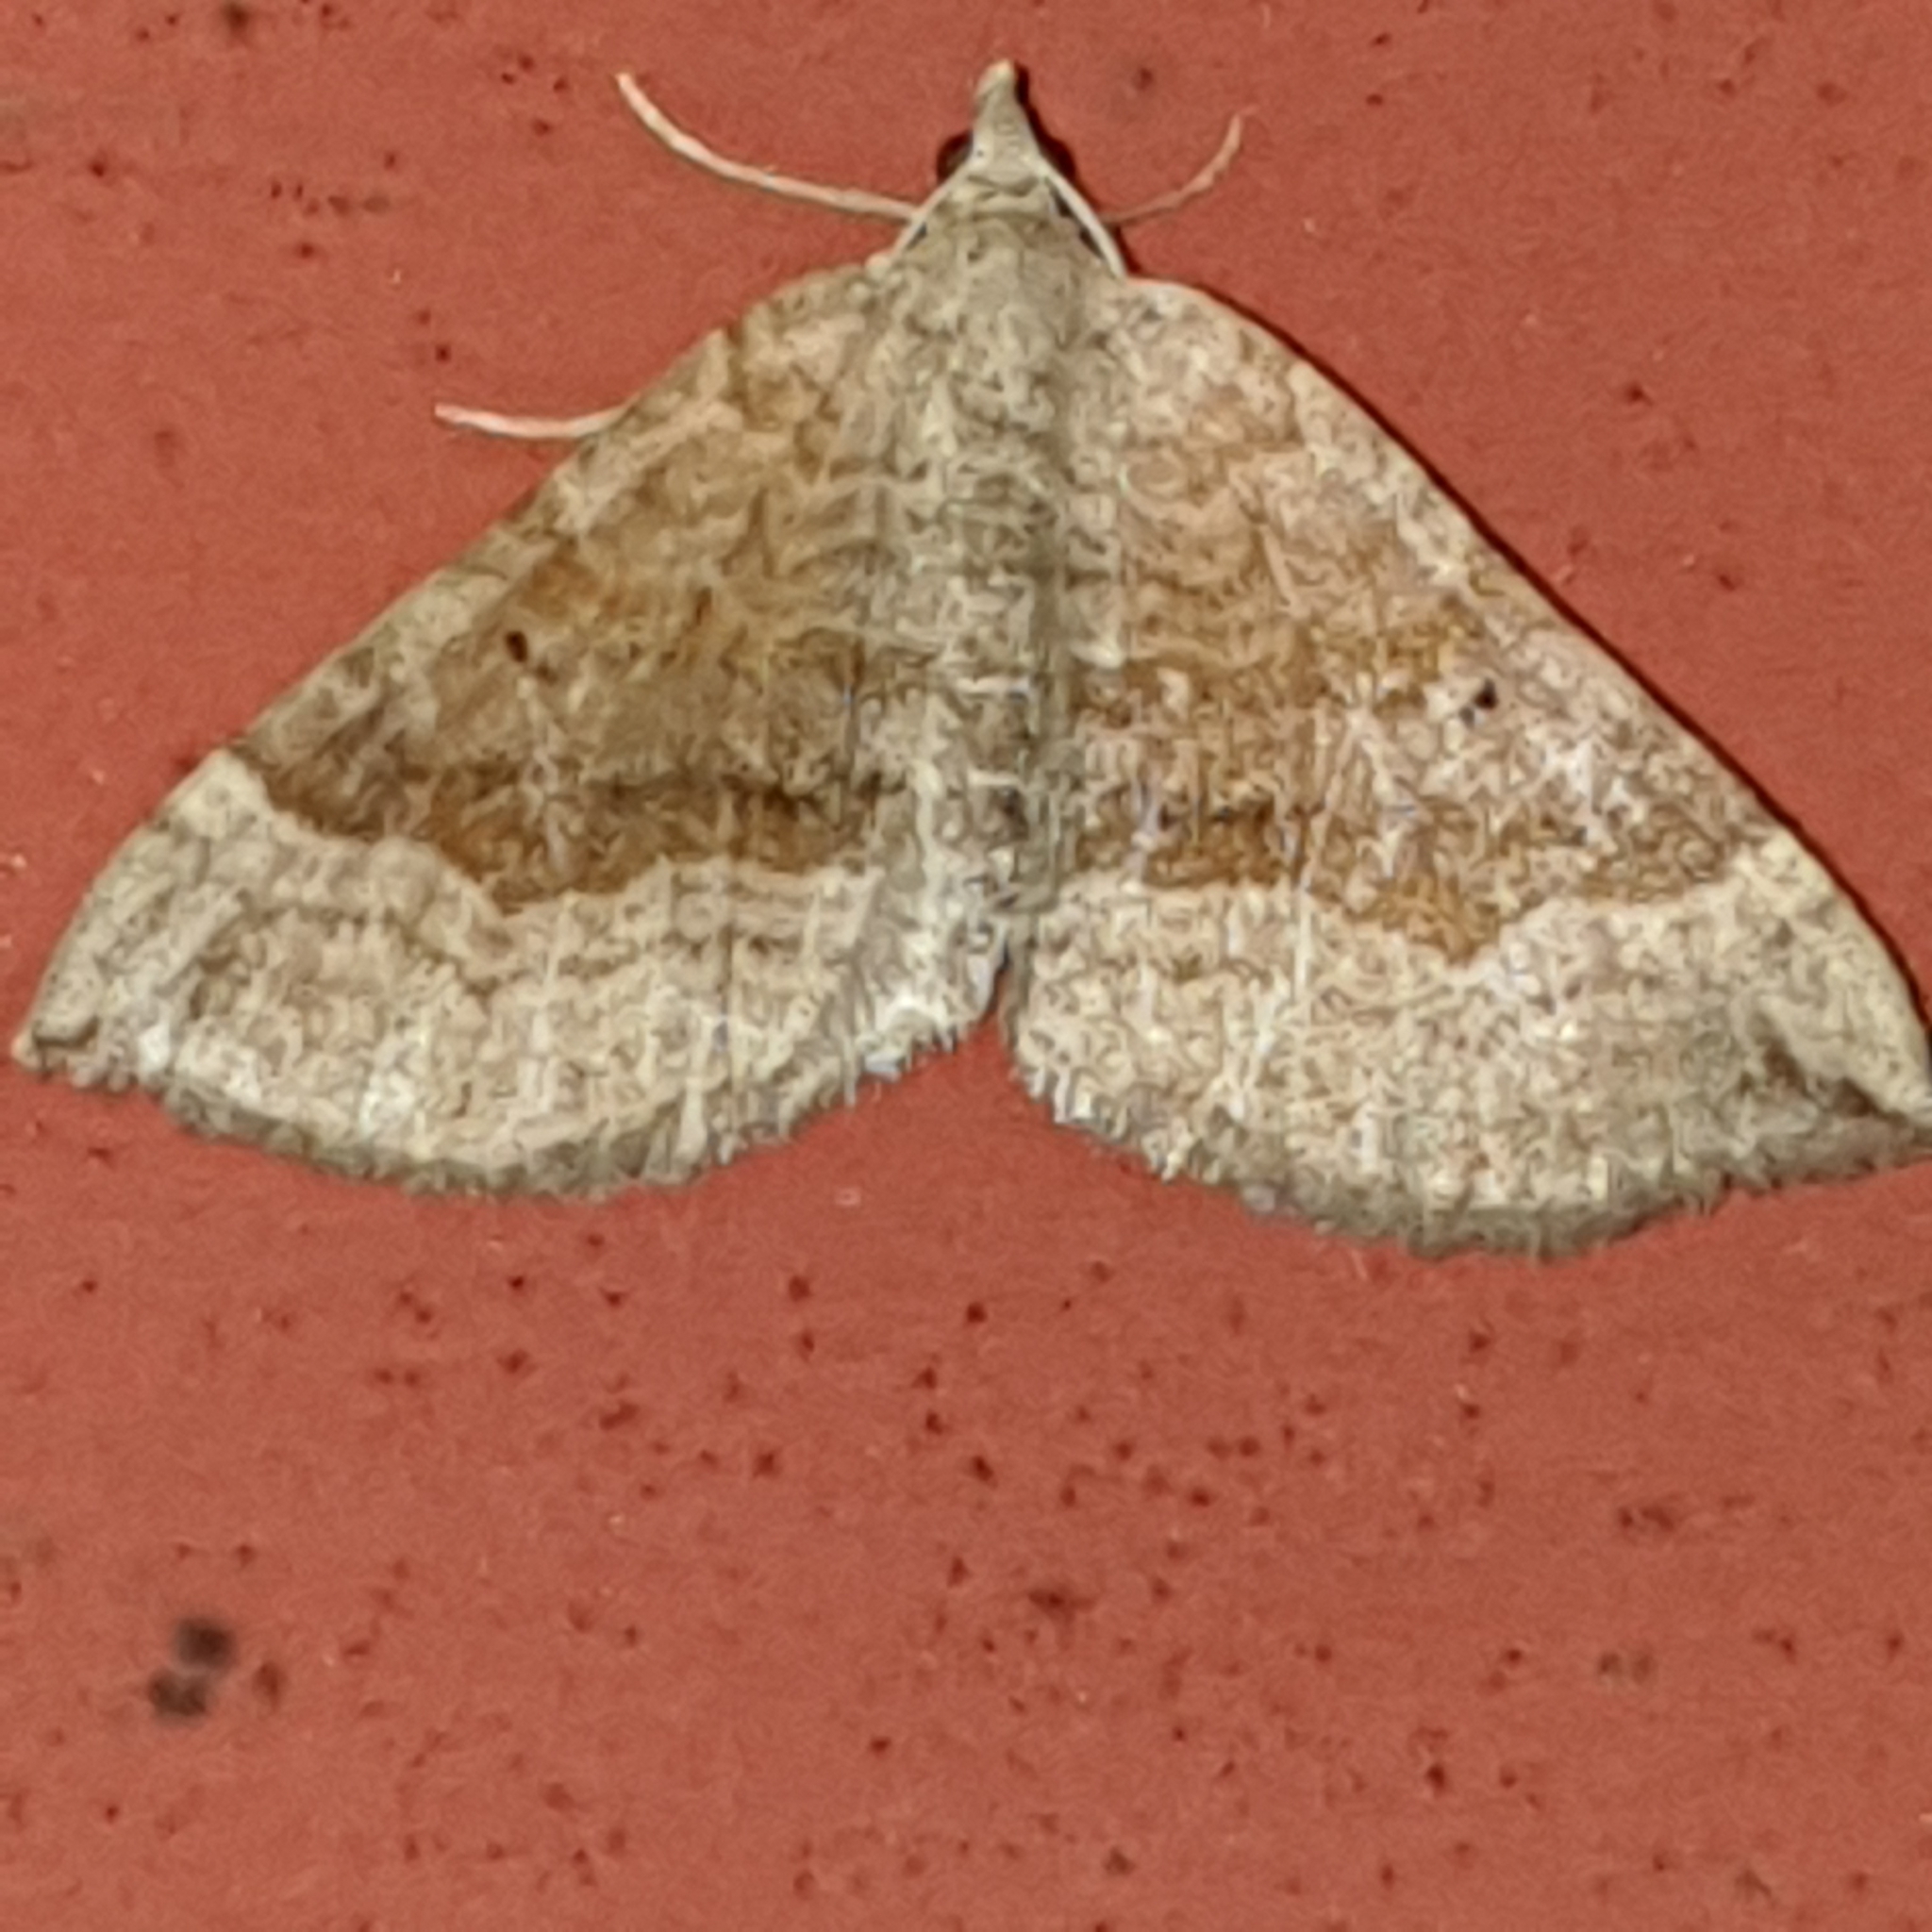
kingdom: Animalia
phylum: Arthropoda
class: Insecta
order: Lepidoptera
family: Geometridae
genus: Scotopteryx
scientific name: Scotopteryx chenopodiata
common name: Shaded broad-bar
